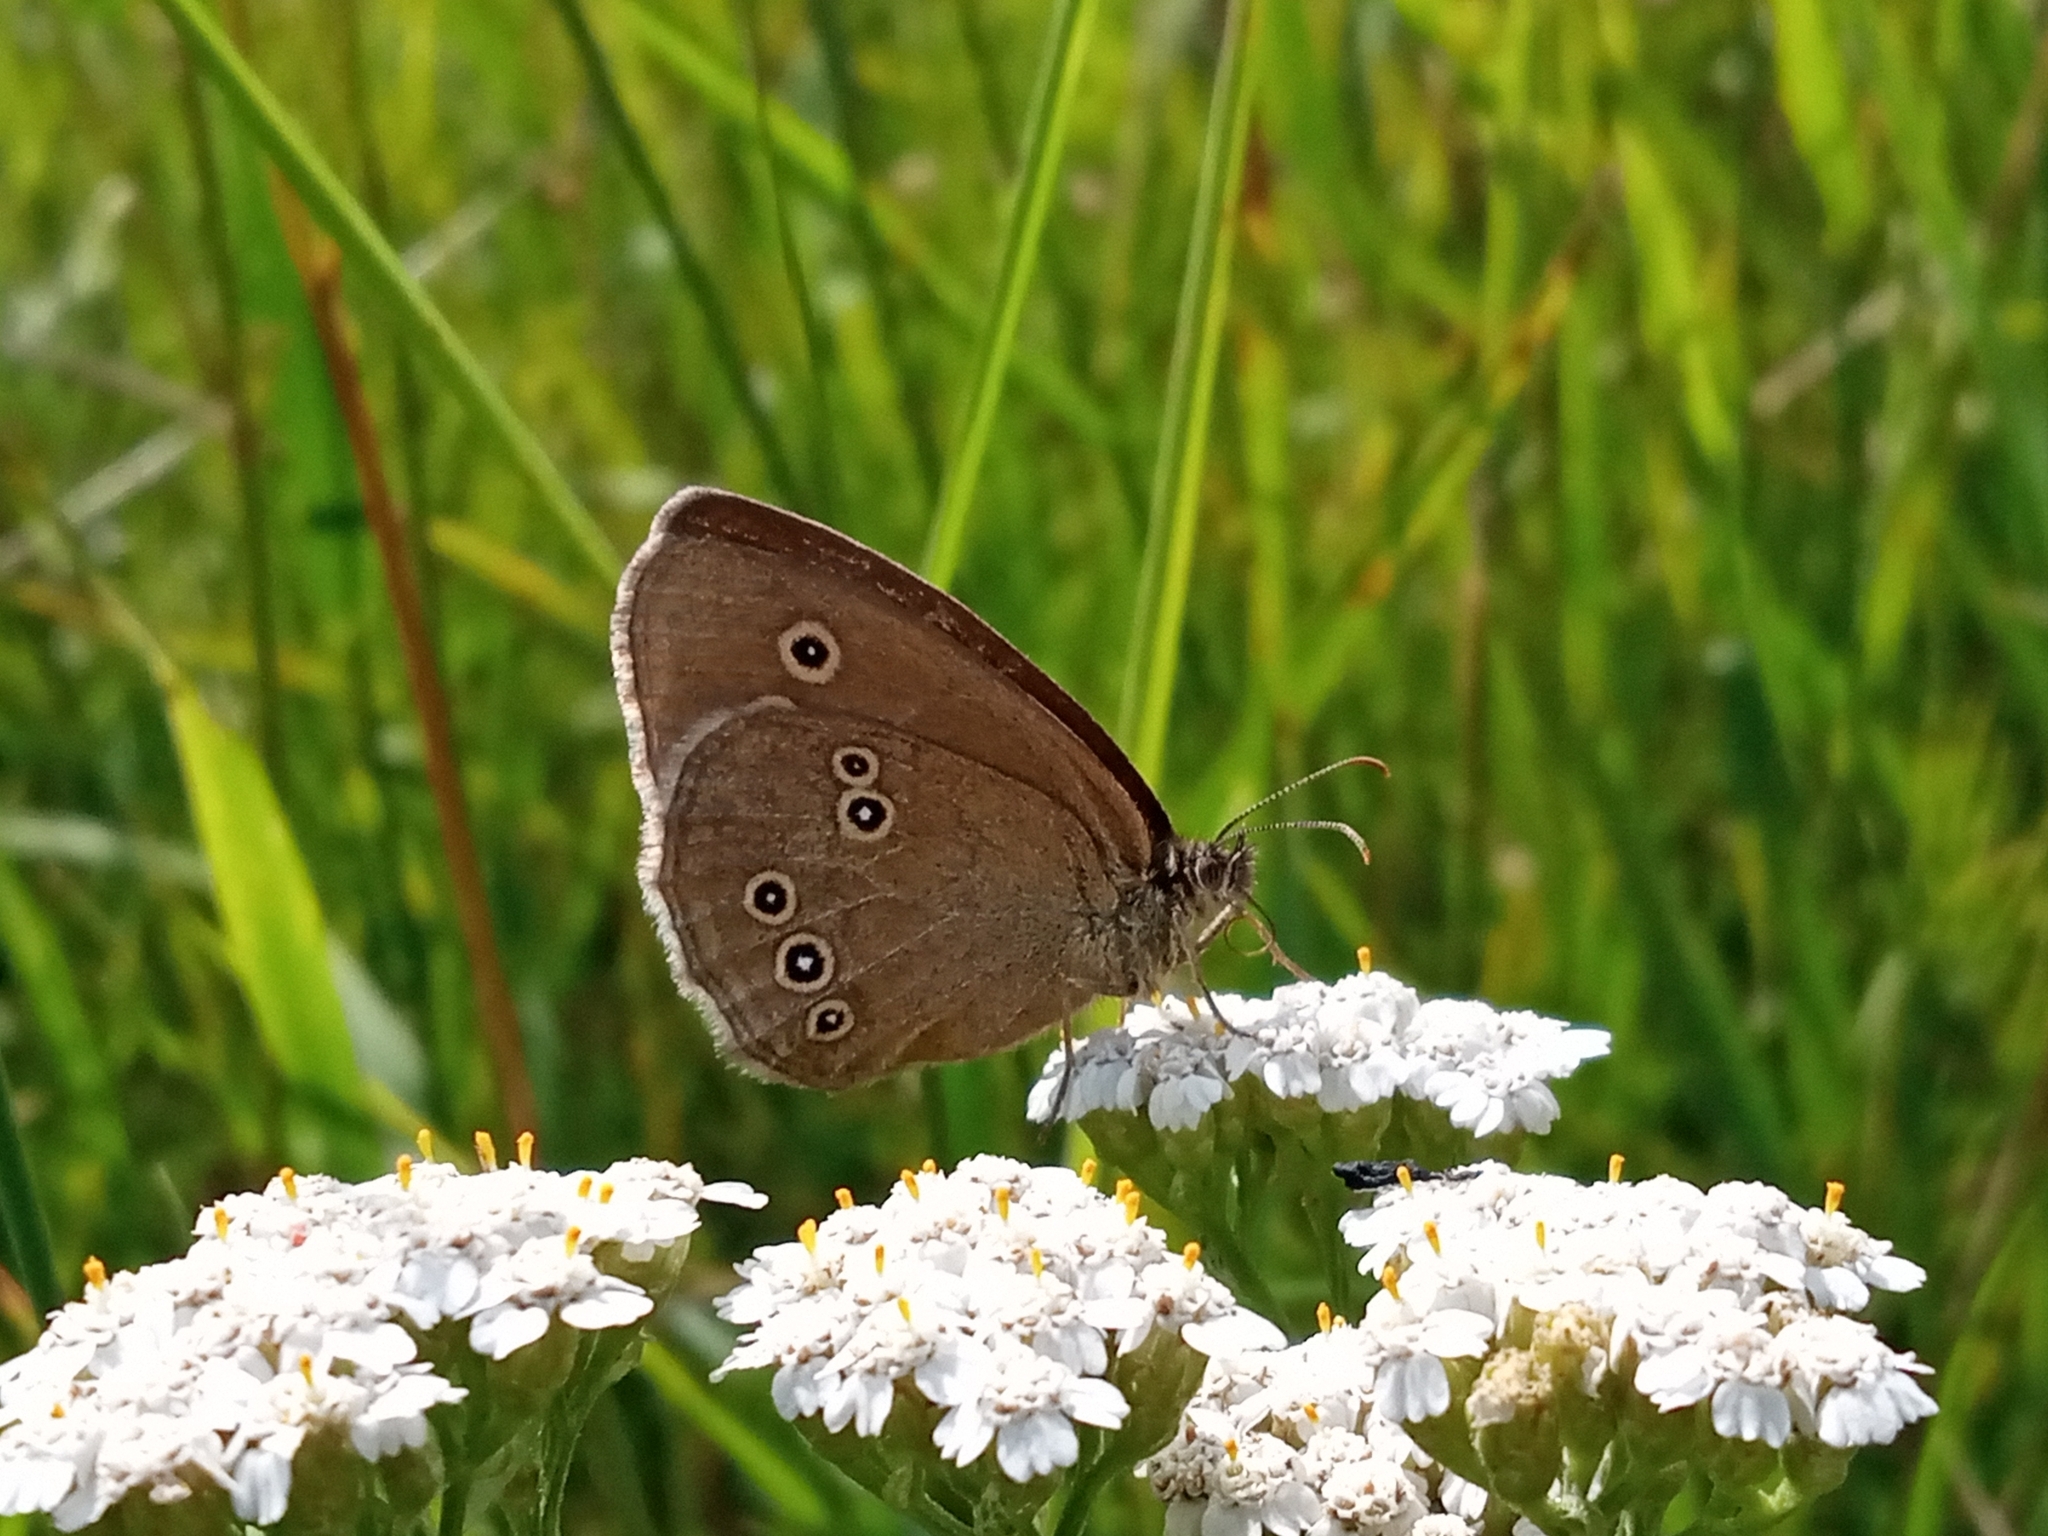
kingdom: Animalia
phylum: Arthropoda
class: Insecta
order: Lepidoptera
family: Nymphalidae
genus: Aphantopus
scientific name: Aphantopus hyperantus
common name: Ringlet
